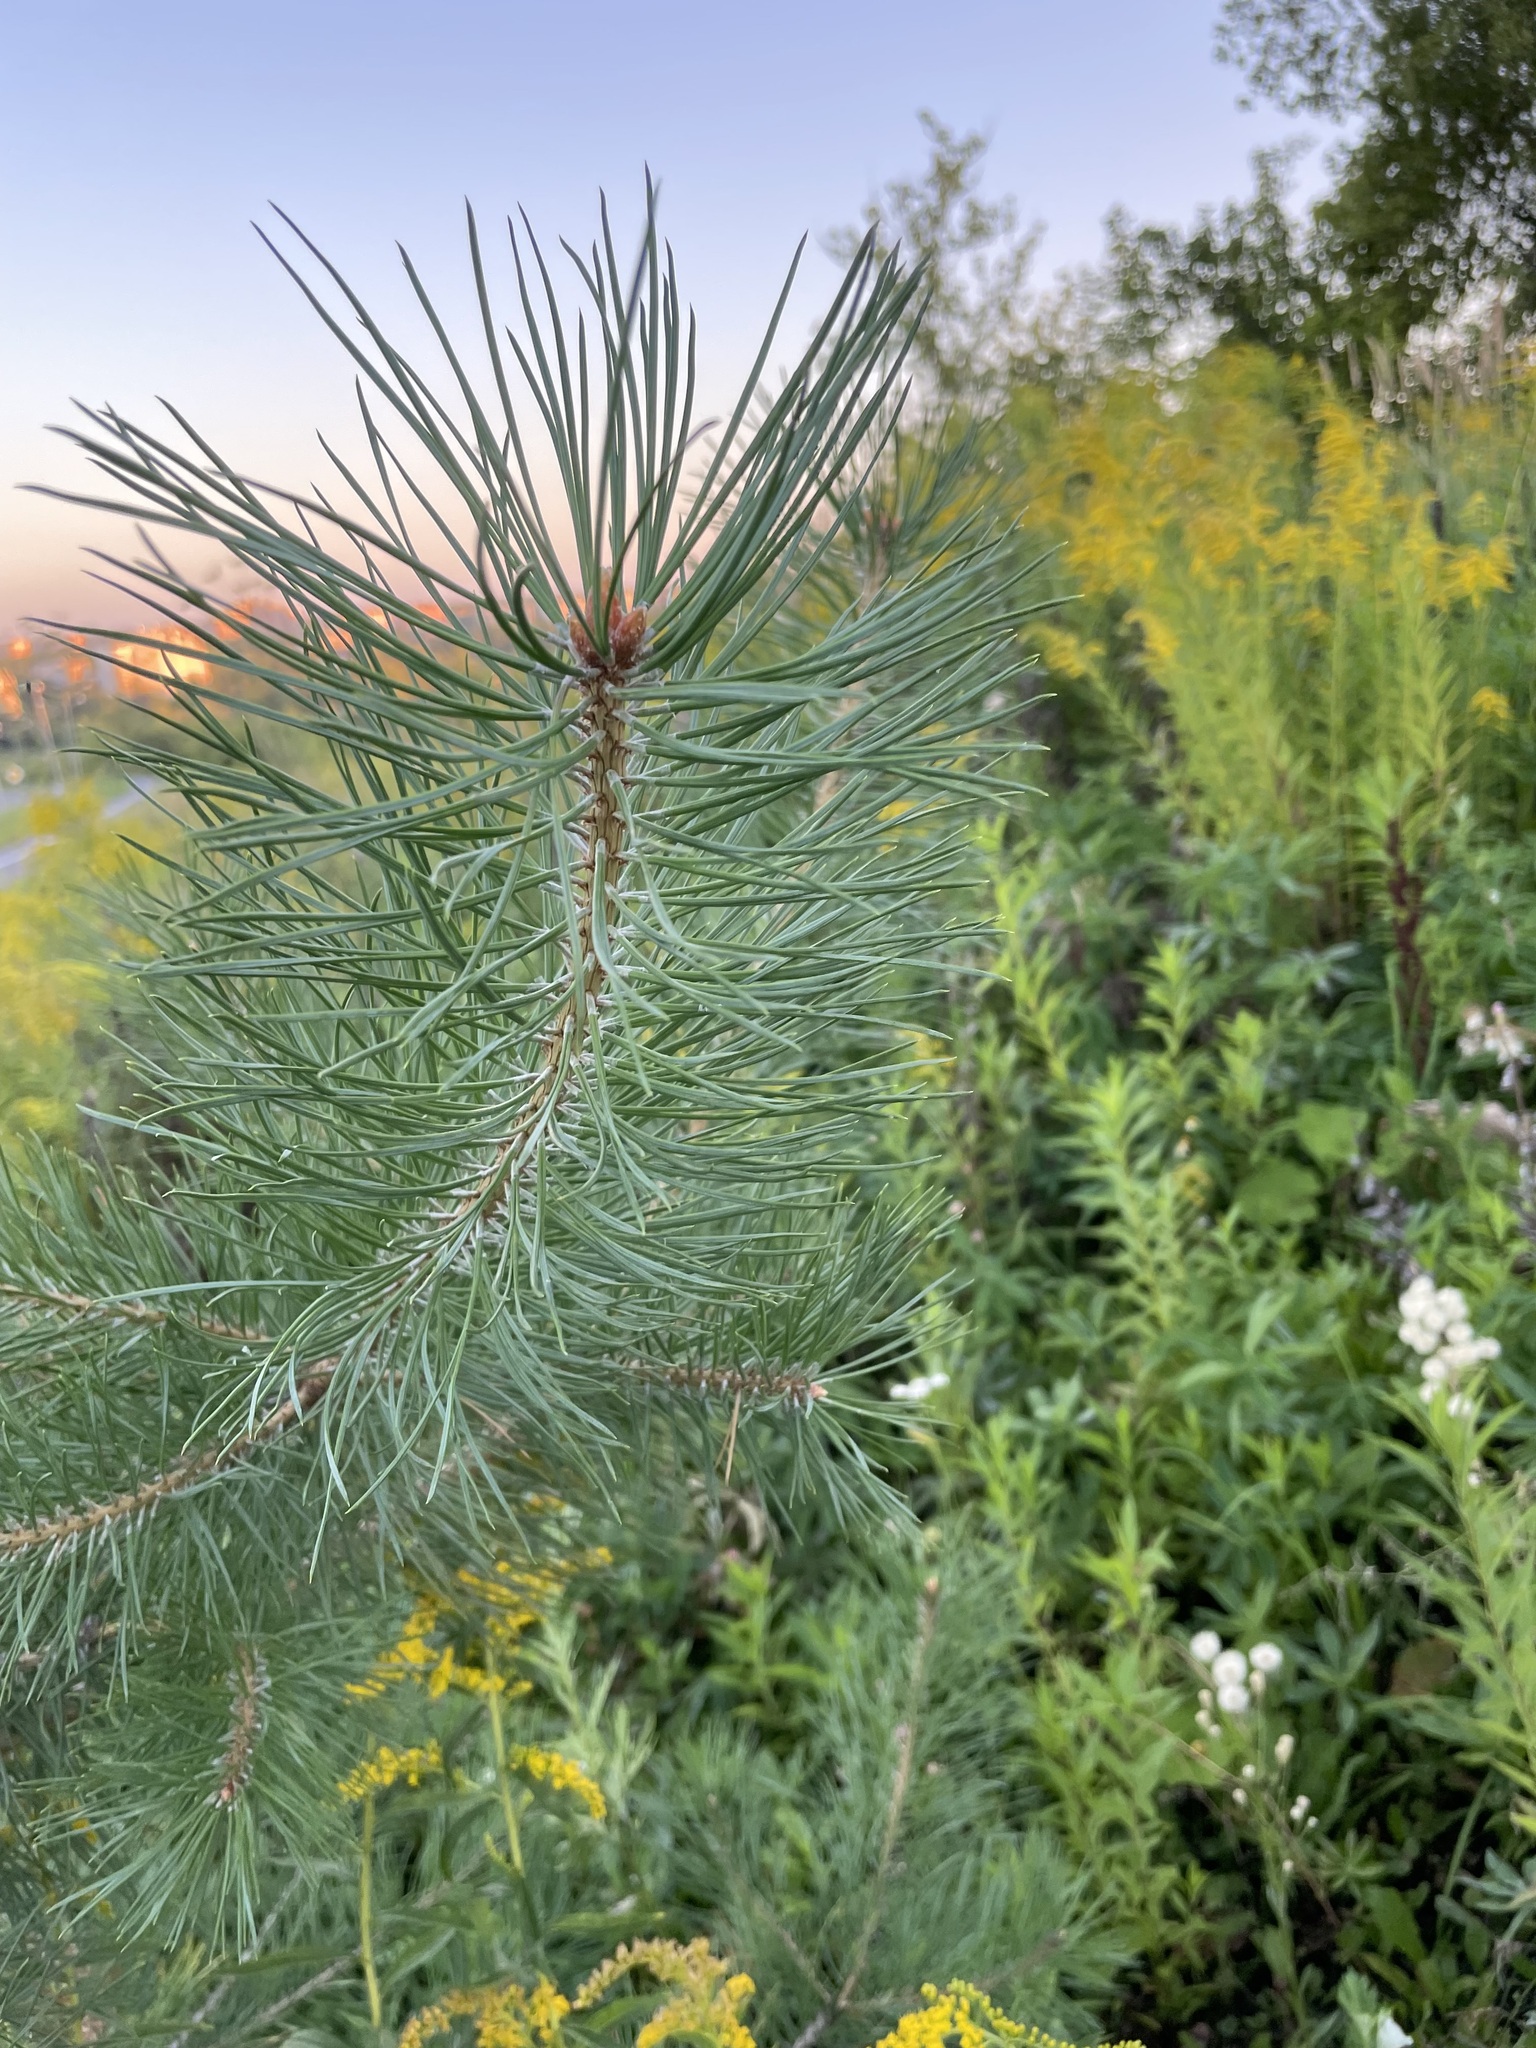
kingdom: Plantae
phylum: Tracheophyta
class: Pinopsida
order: Pinales
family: Pinaceae
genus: Pinus
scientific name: Pinus sylvestris
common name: Scots pine
